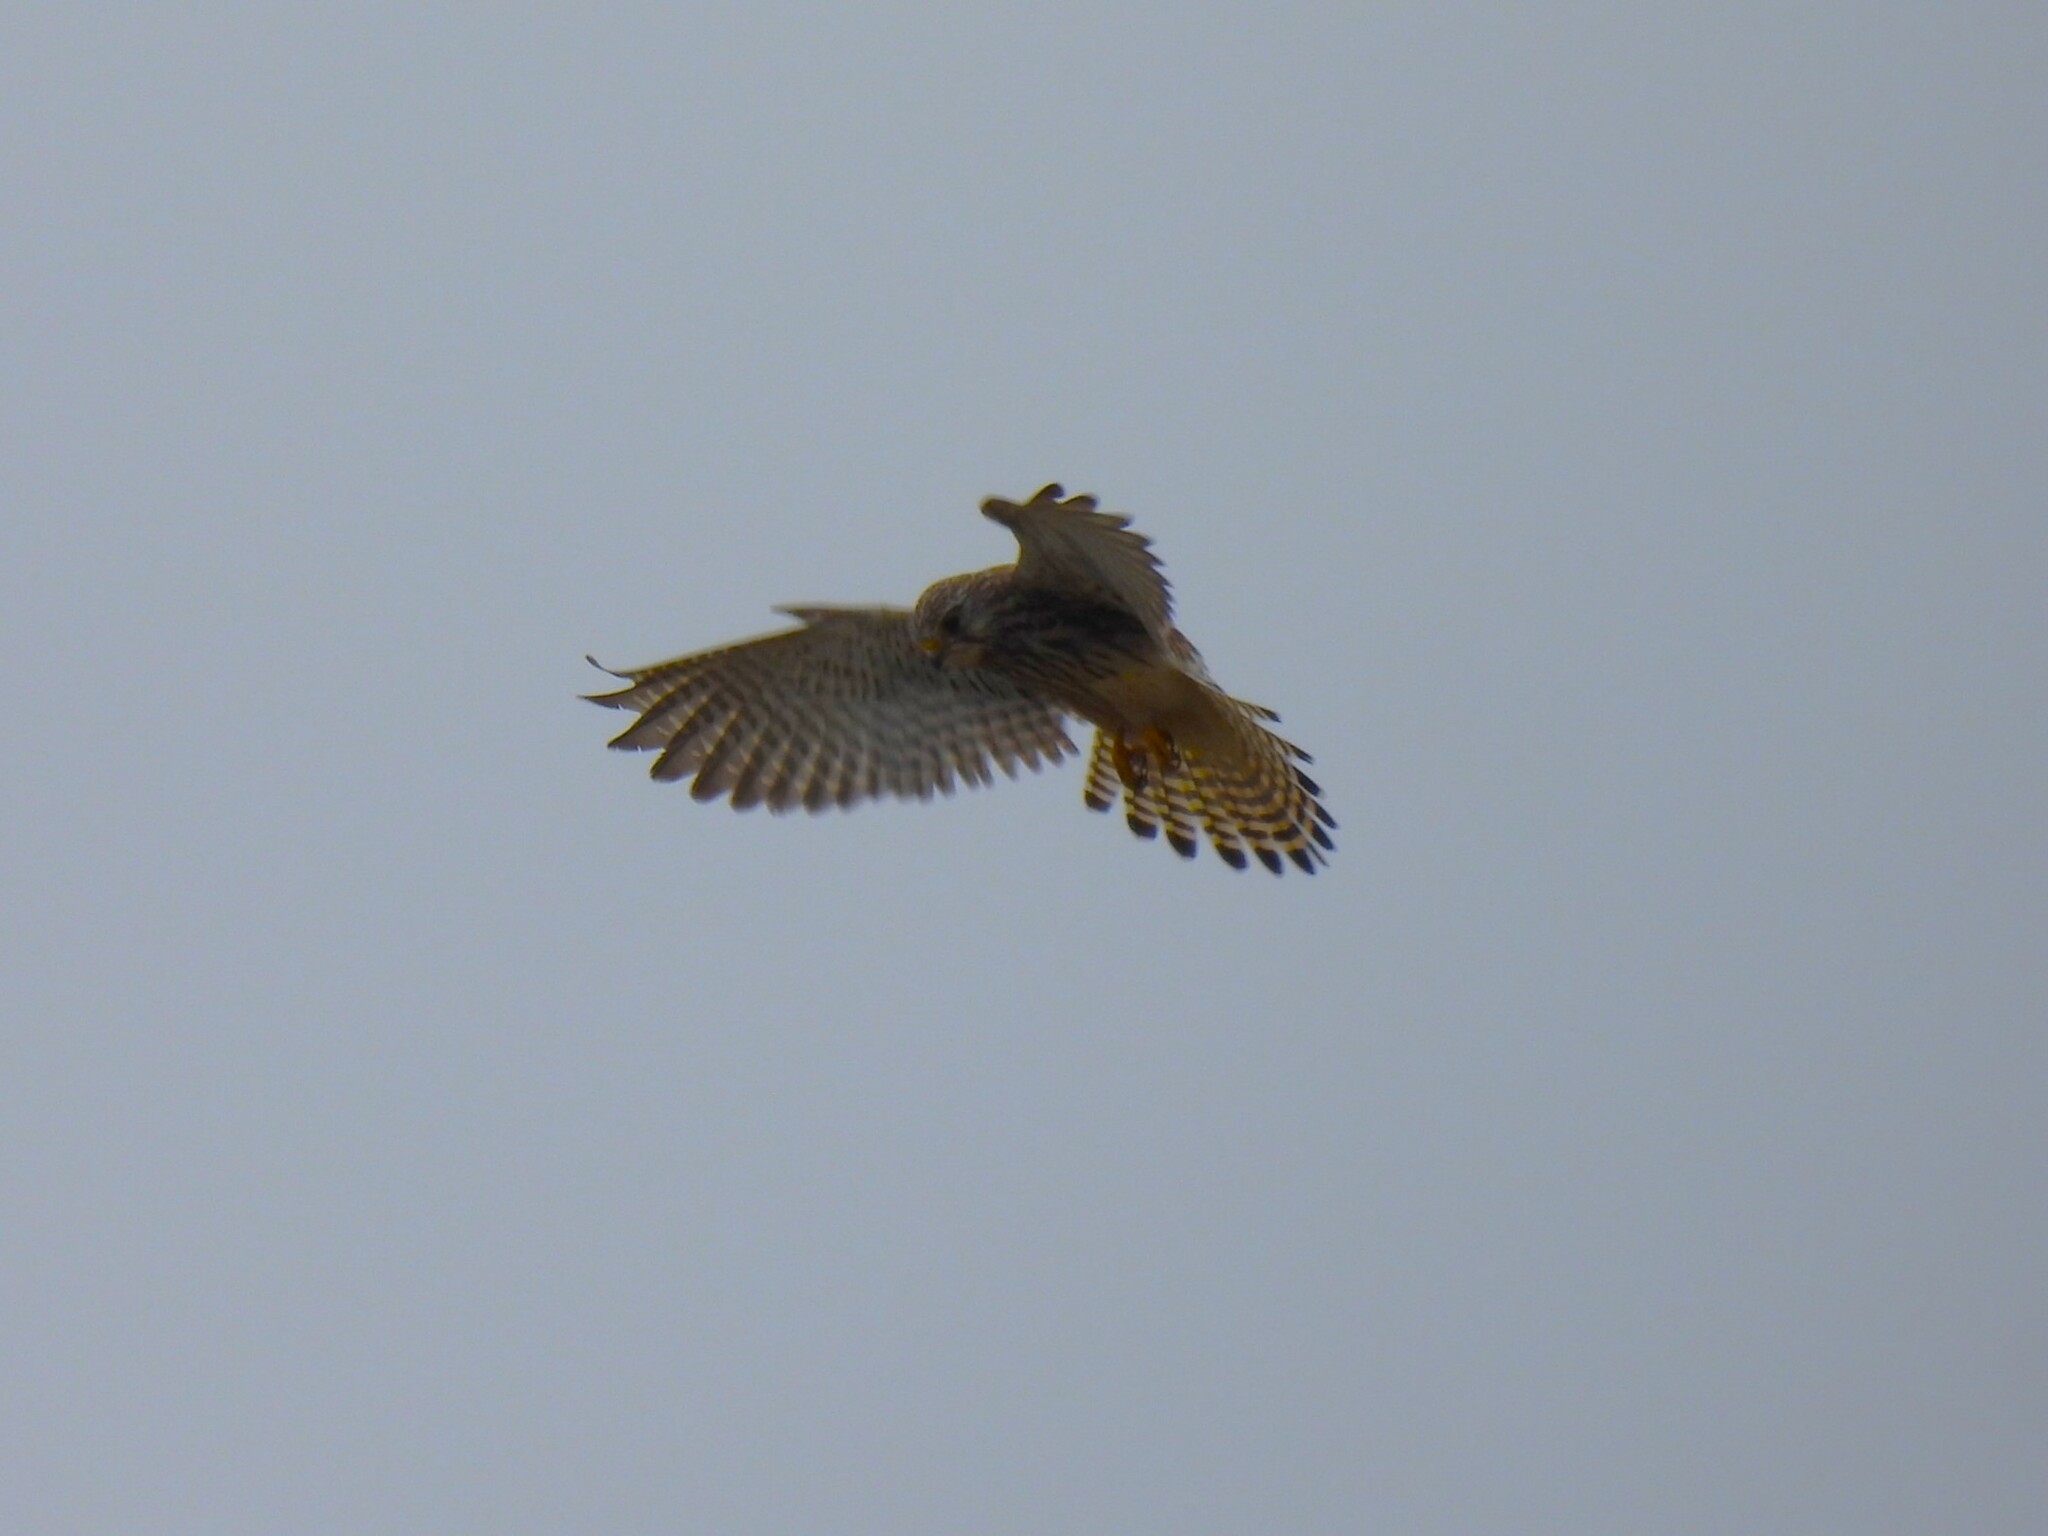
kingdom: Animalia
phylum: Chordata
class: Aves
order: Falconiformes
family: Falconidae
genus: Falco
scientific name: Falco tinnunculus
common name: Common kestrel
